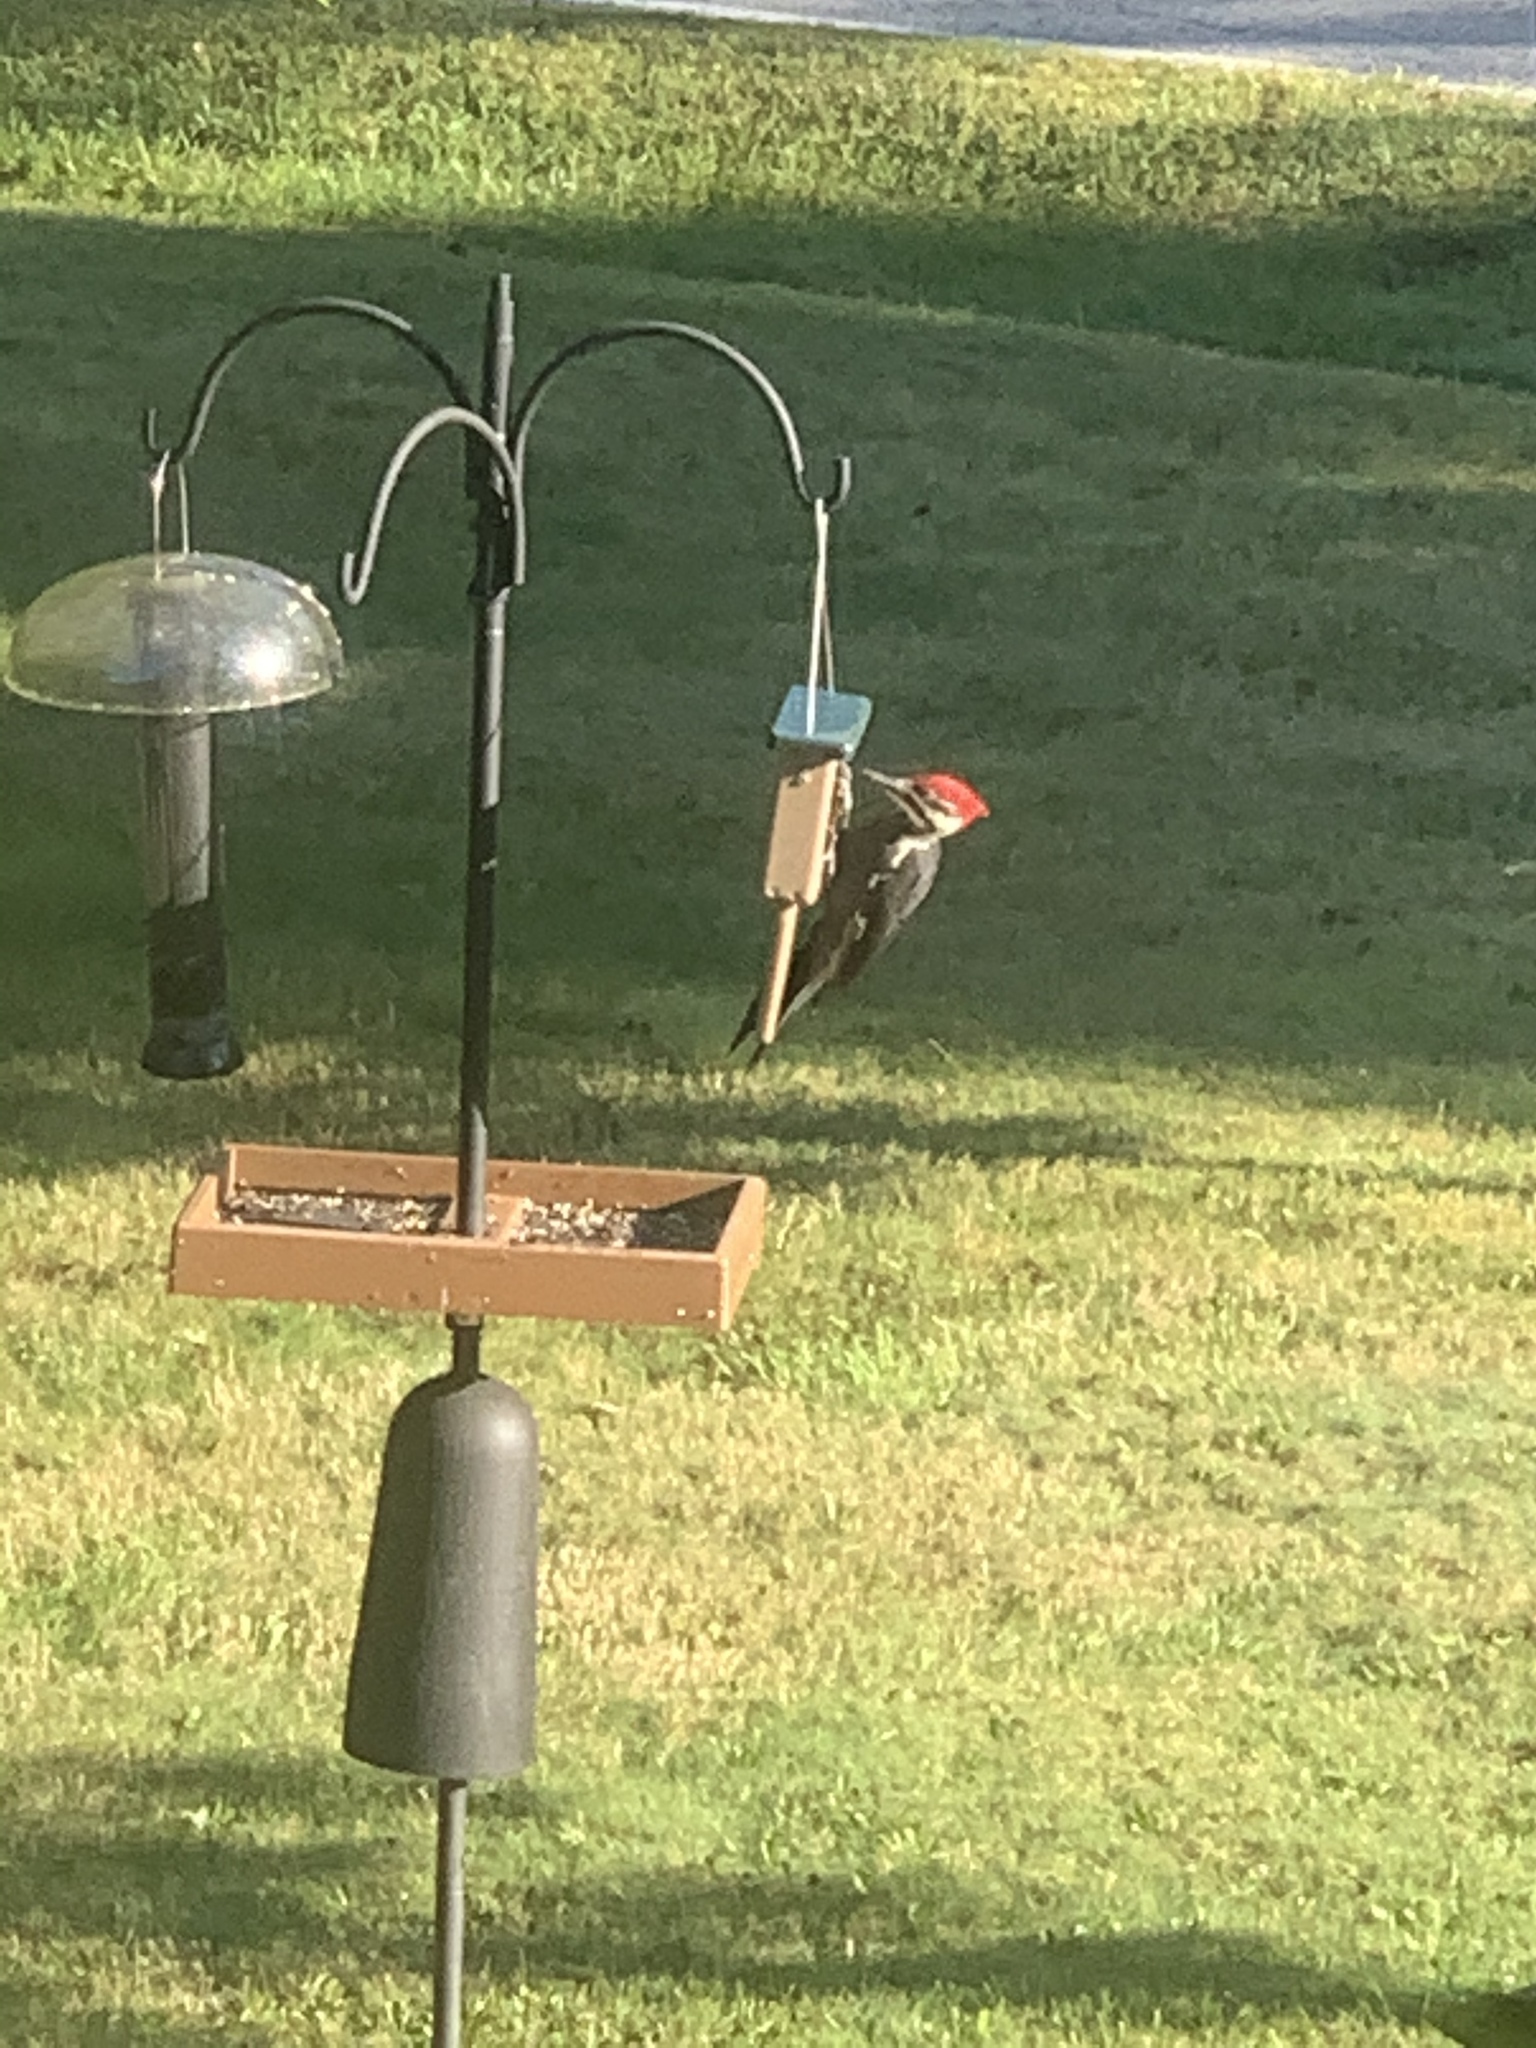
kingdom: Animalia
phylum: Chordata
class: Aves
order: Piciformes
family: Picidae
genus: Dryocopus
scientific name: Dryocopus pileatus
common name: Pileated woodpecker
